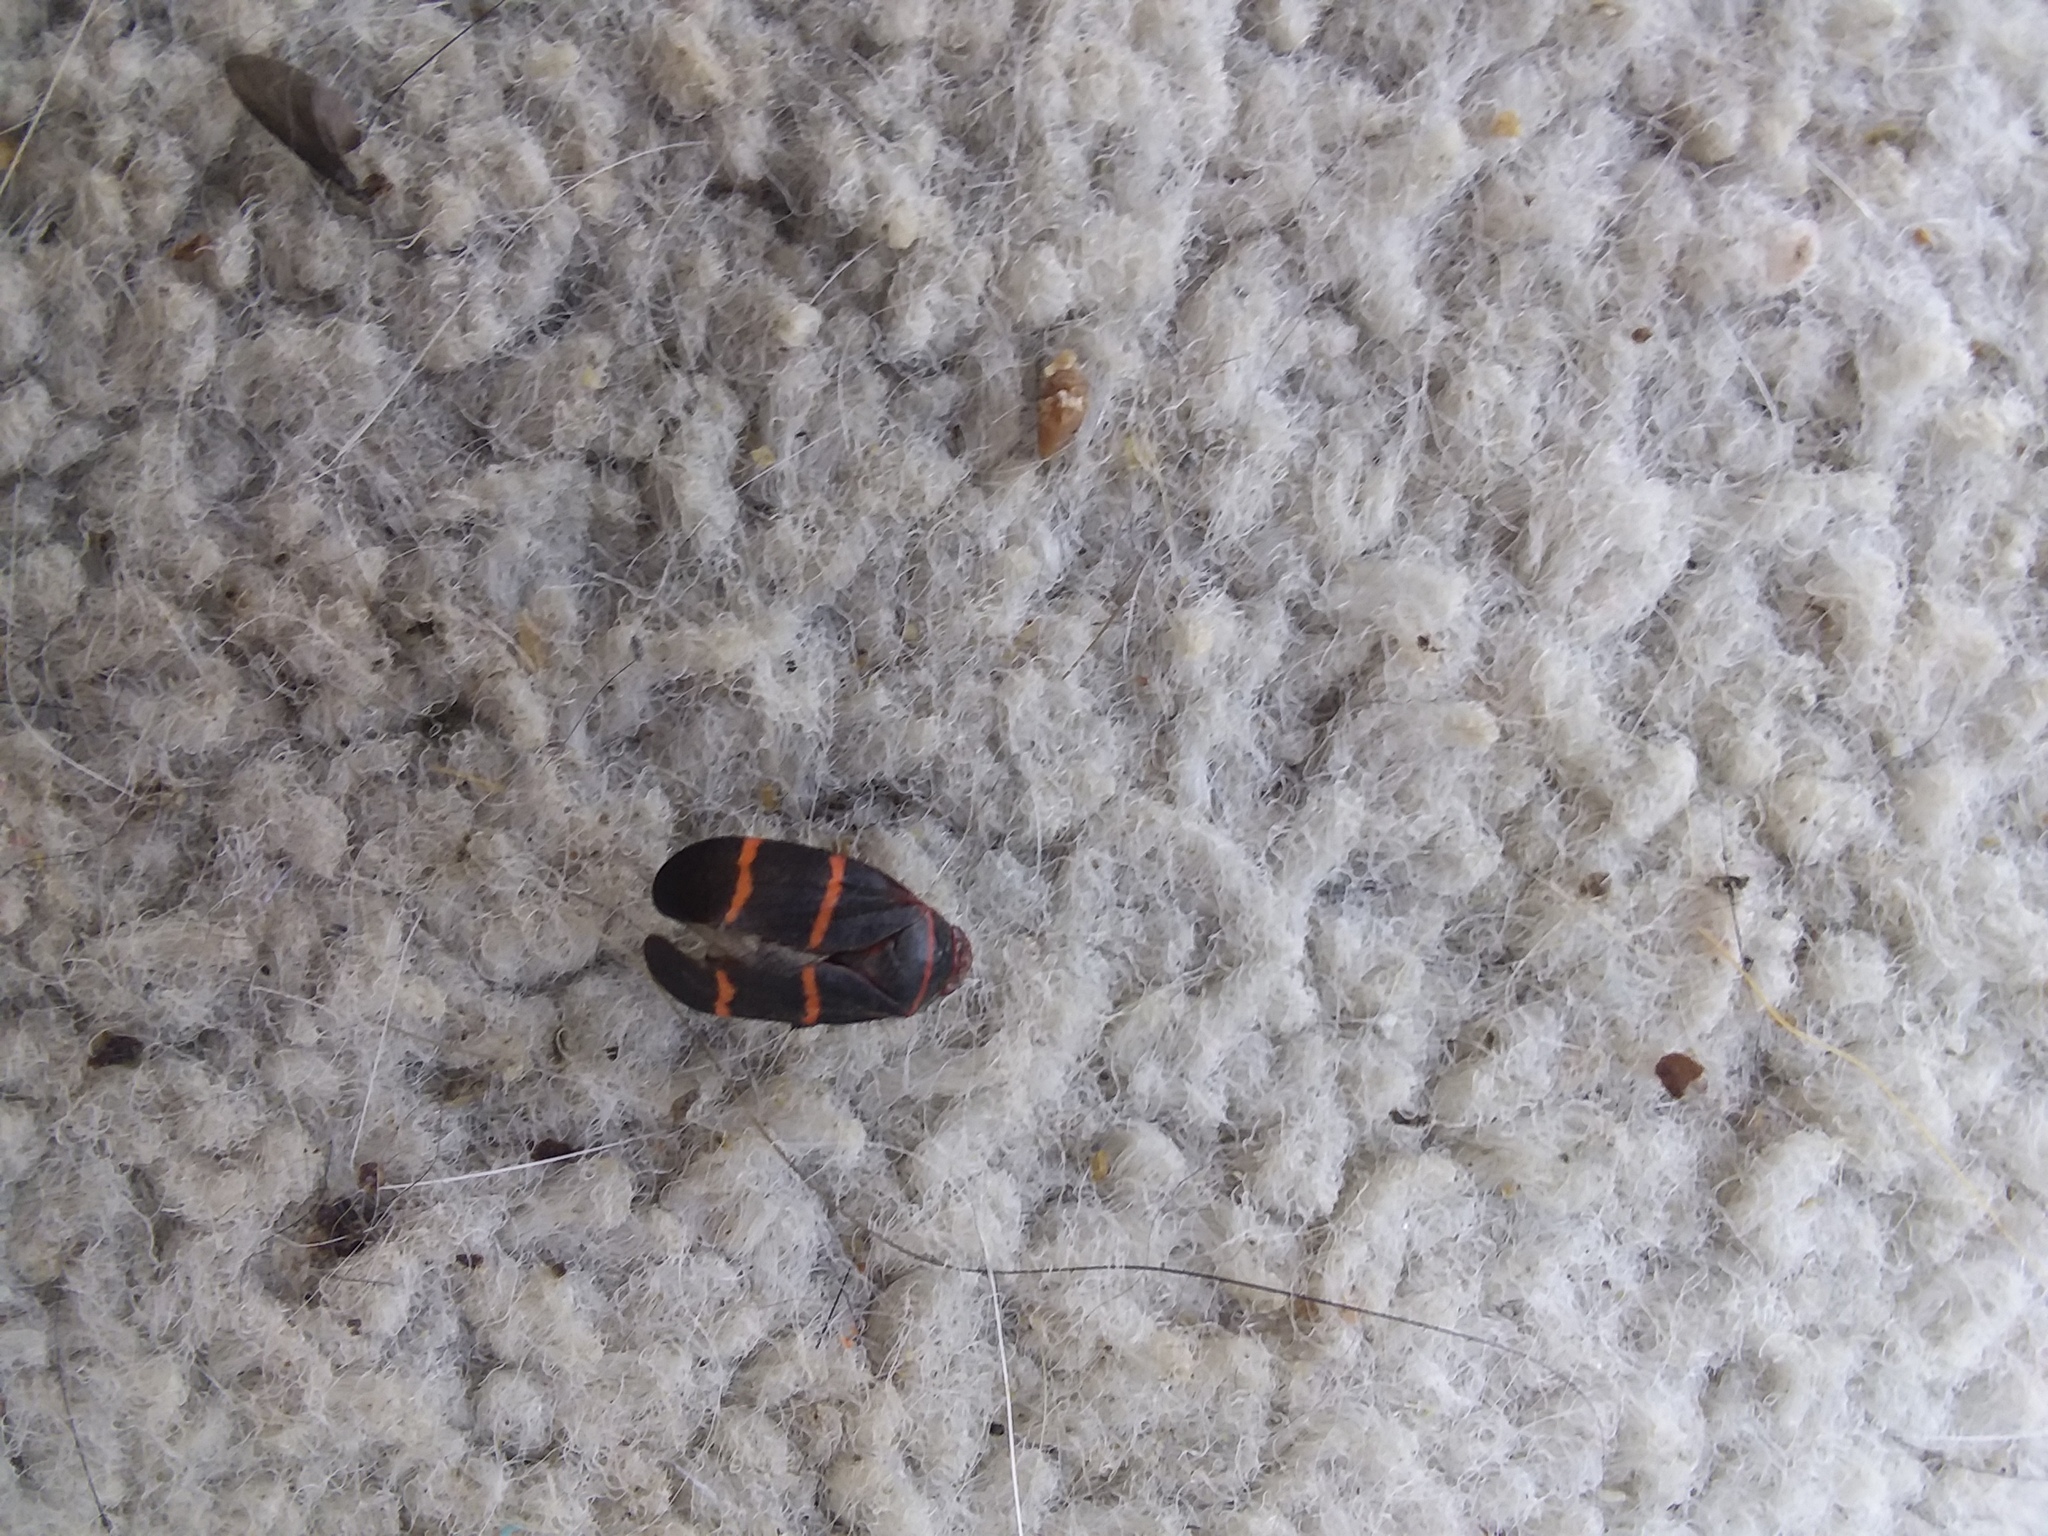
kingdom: Animalia
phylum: Arthropoda
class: Insecta
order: Hemiptera
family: Cercopidae
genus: Prosapia
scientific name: Prosapia bicincta
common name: Twolined spittlebug
